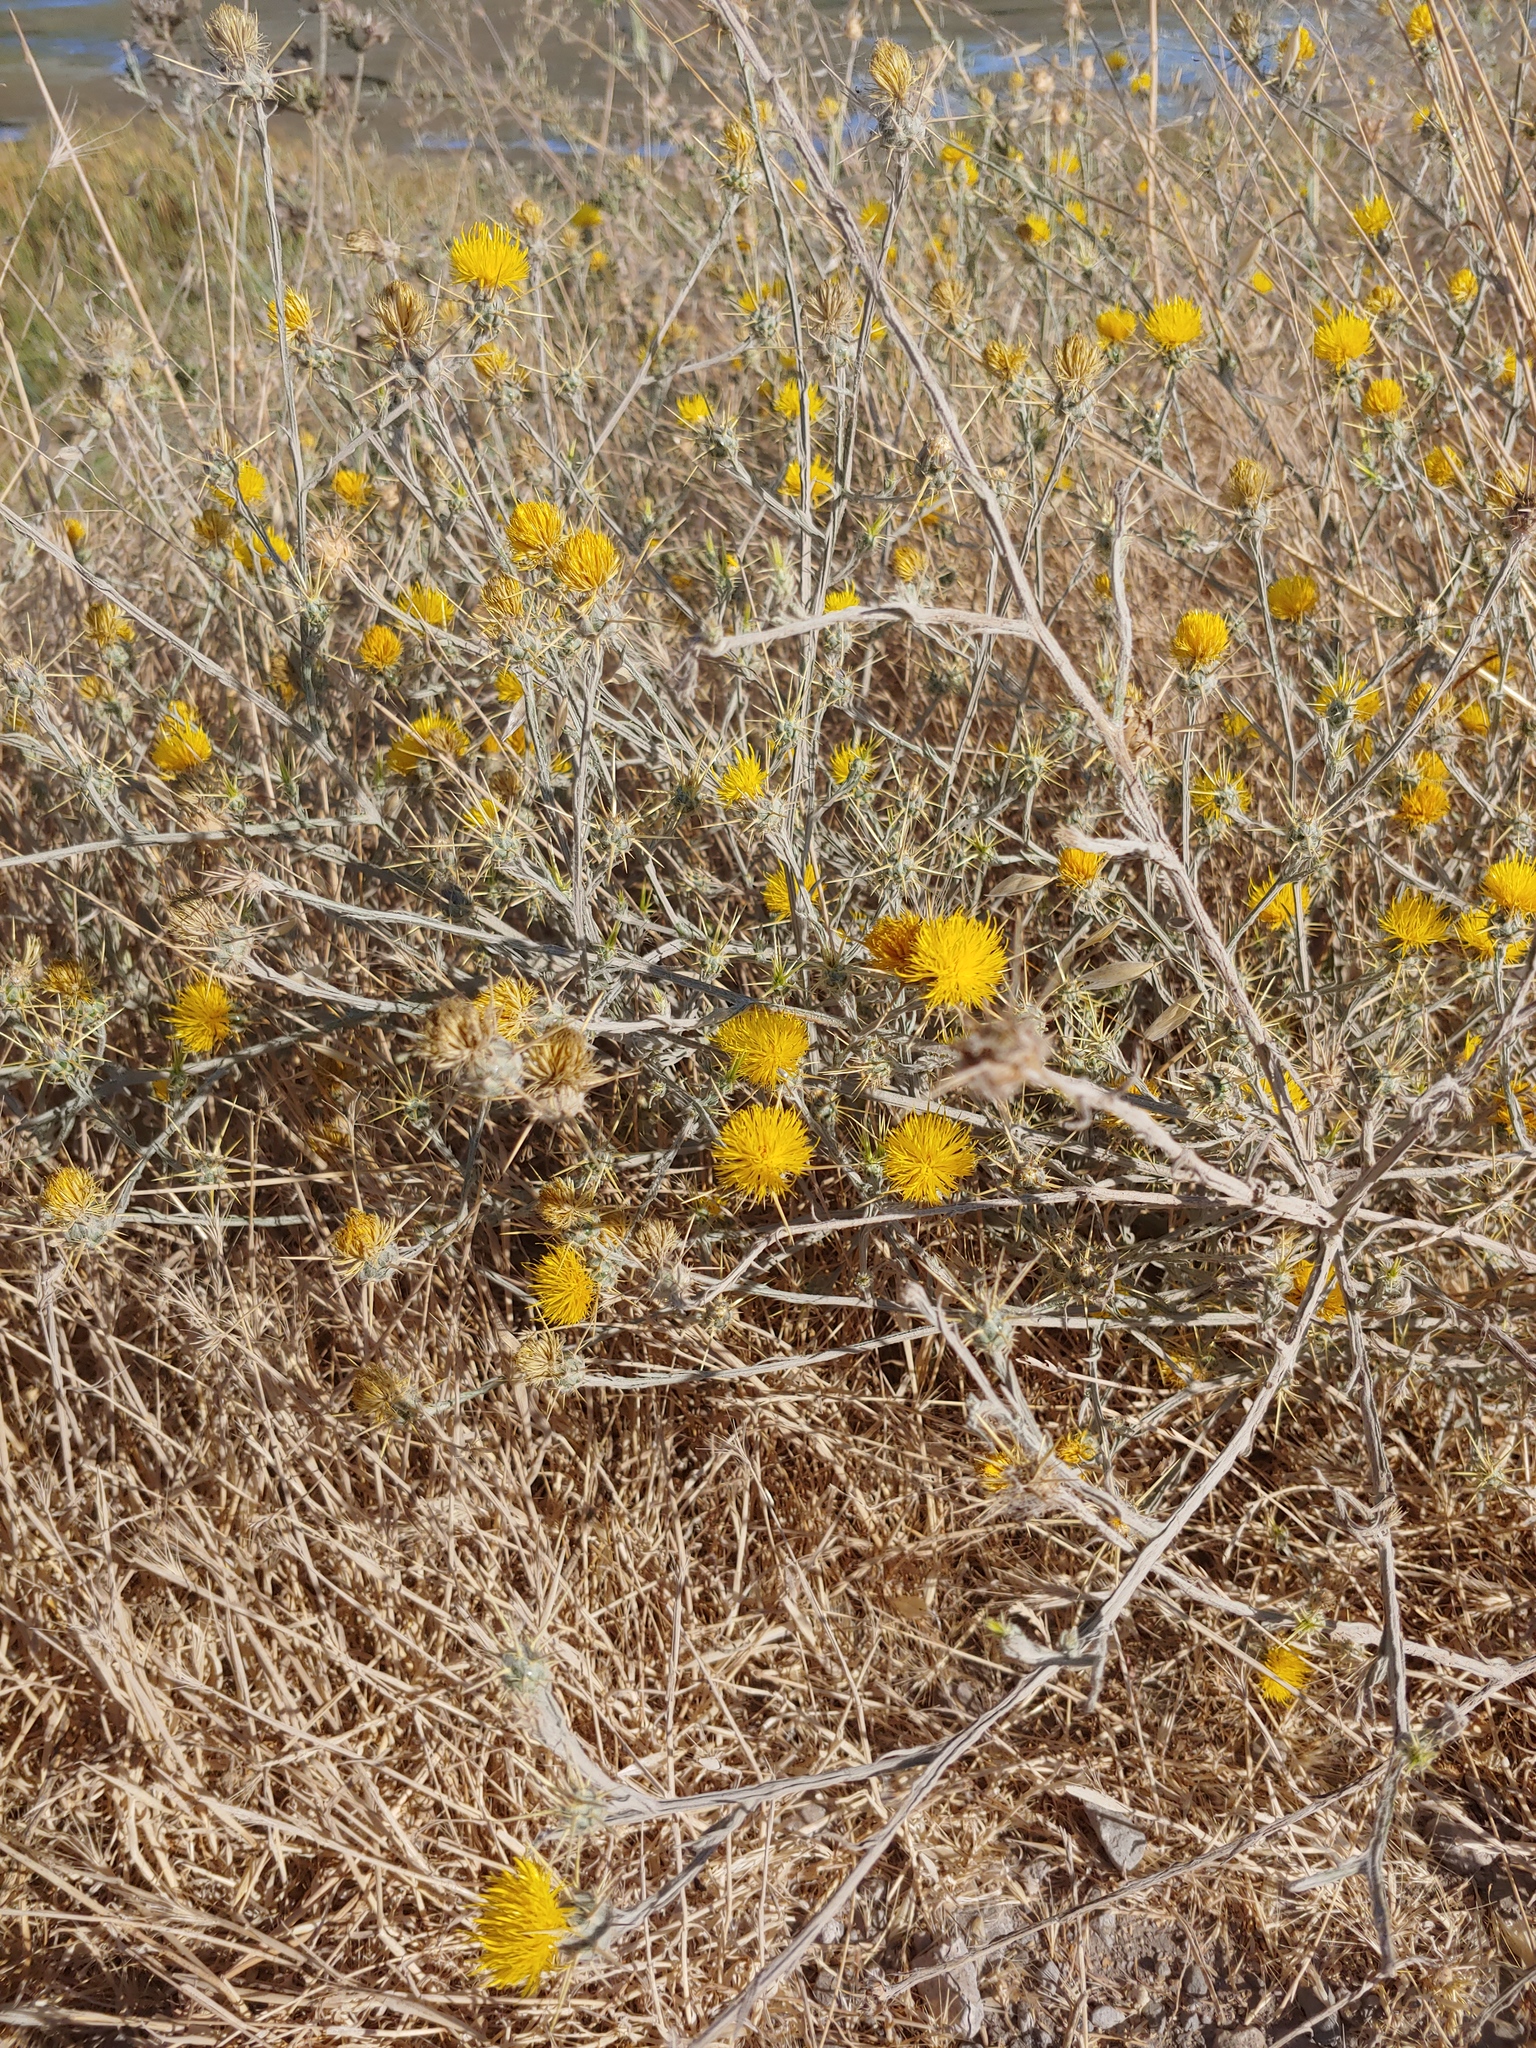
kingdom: Plantae
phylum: Tracheophyta
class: Magnoliopsida
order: Asterales
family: Asteraceae
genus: Centaurea
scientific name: Centaurea solstitialis
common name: Yellow star-thistle
